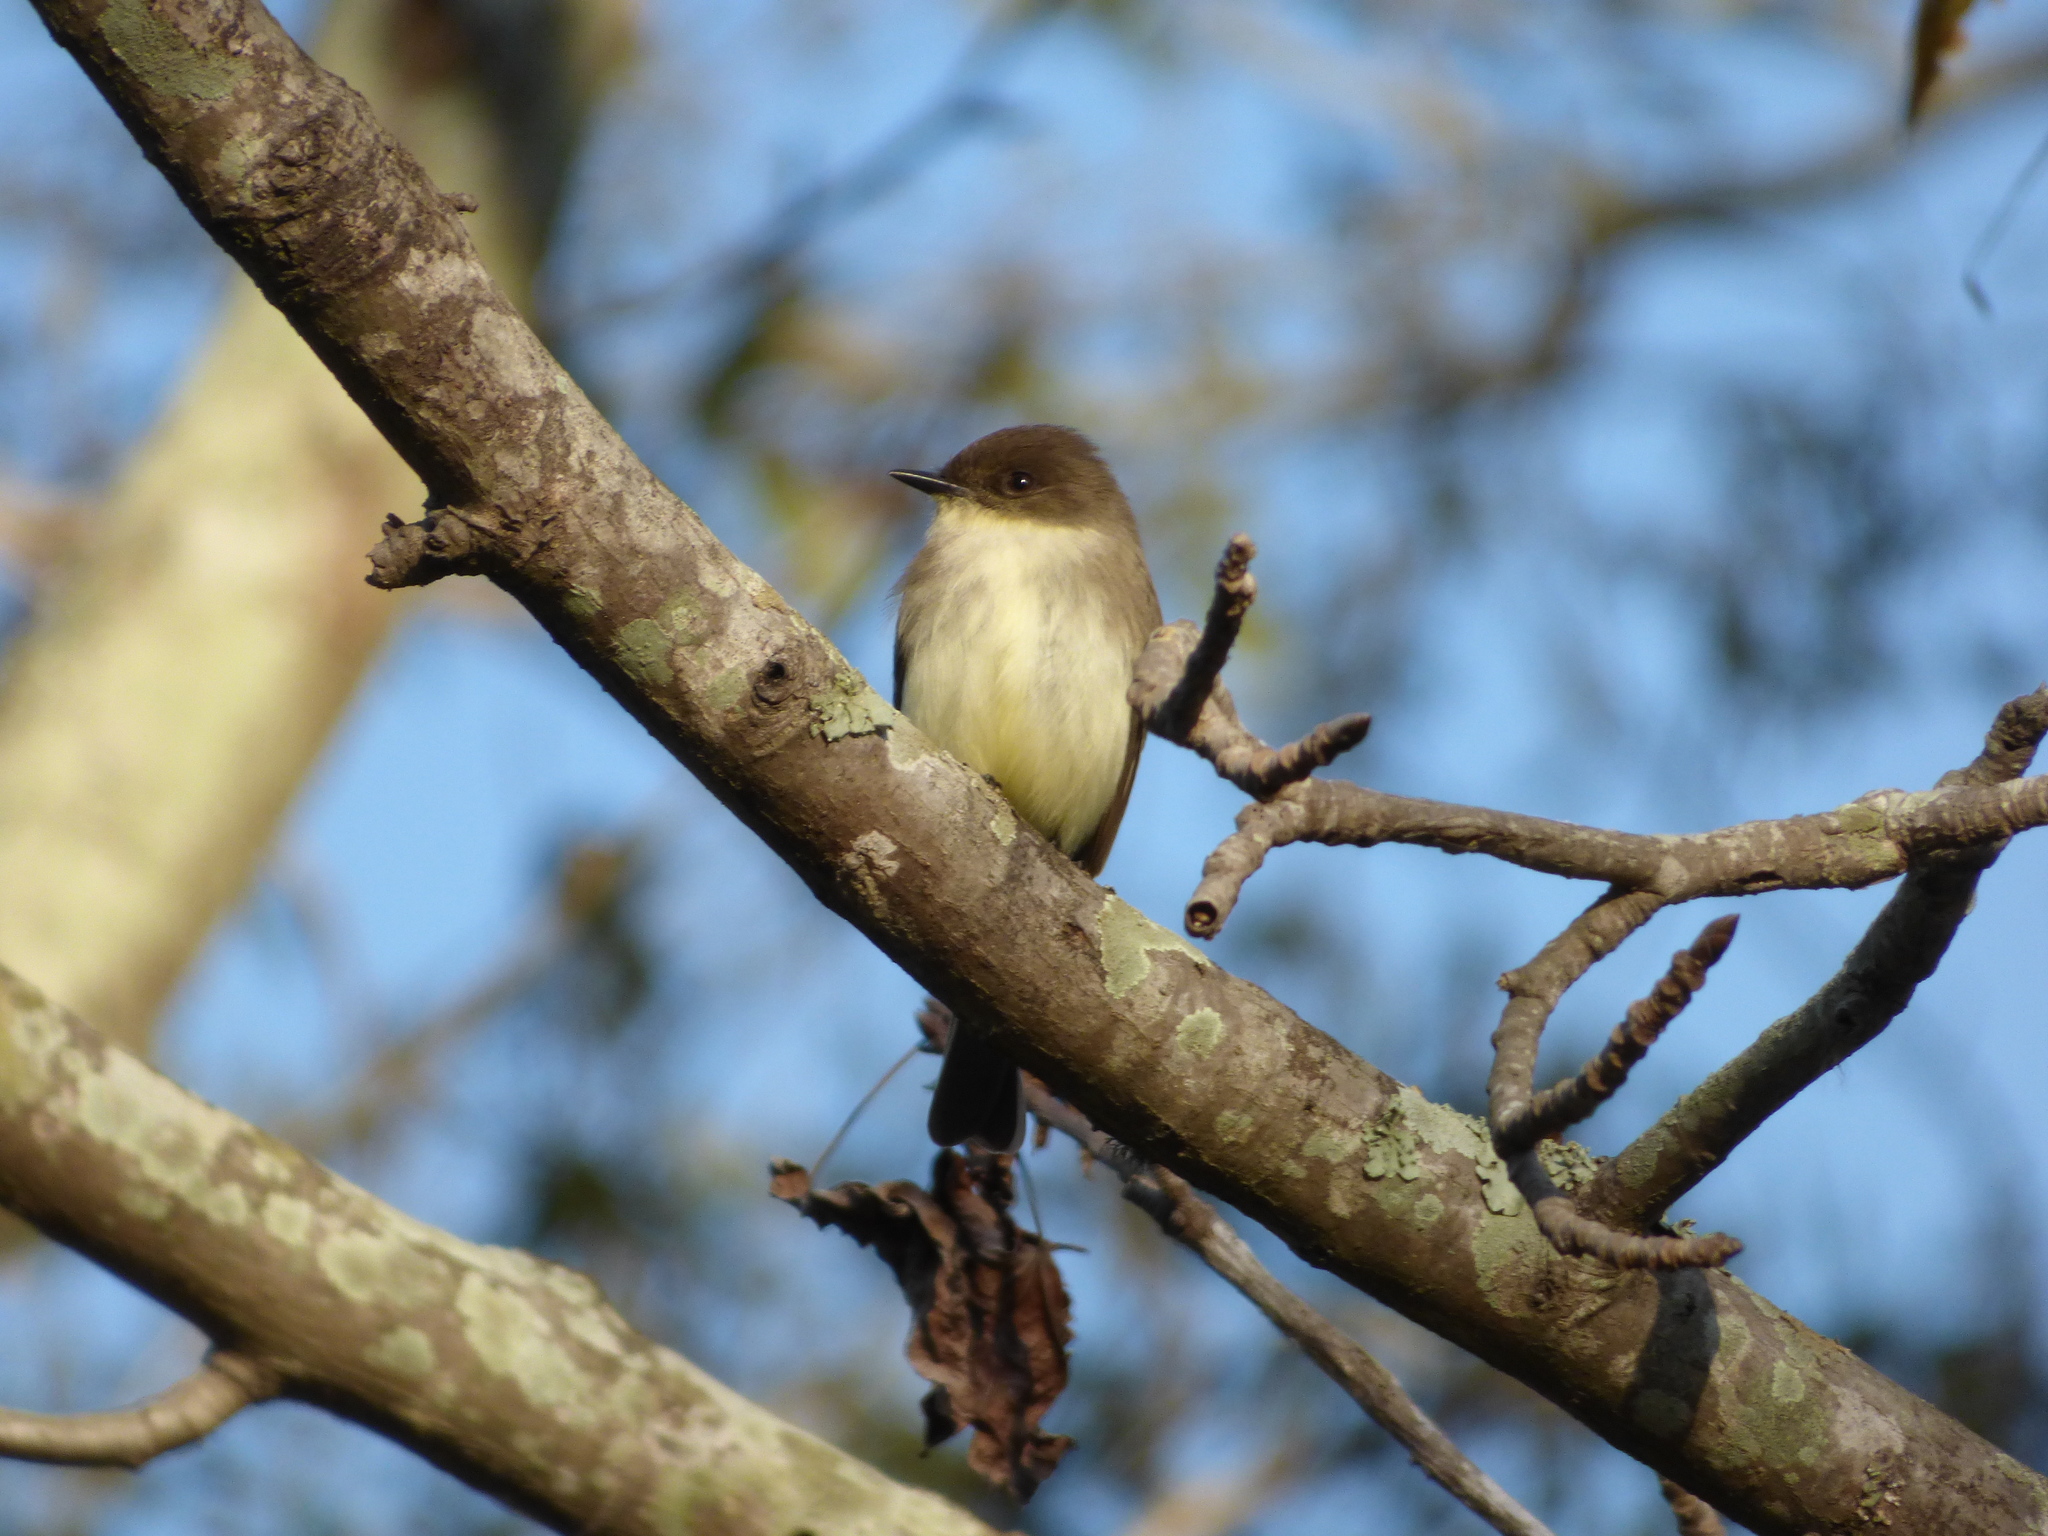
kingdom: Animalia
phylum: Chordata
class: Aves
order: Passeriformes
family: Tyrannidae
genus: Sayornis
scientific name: Sayornis phoebe
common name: Eastern phoebe
